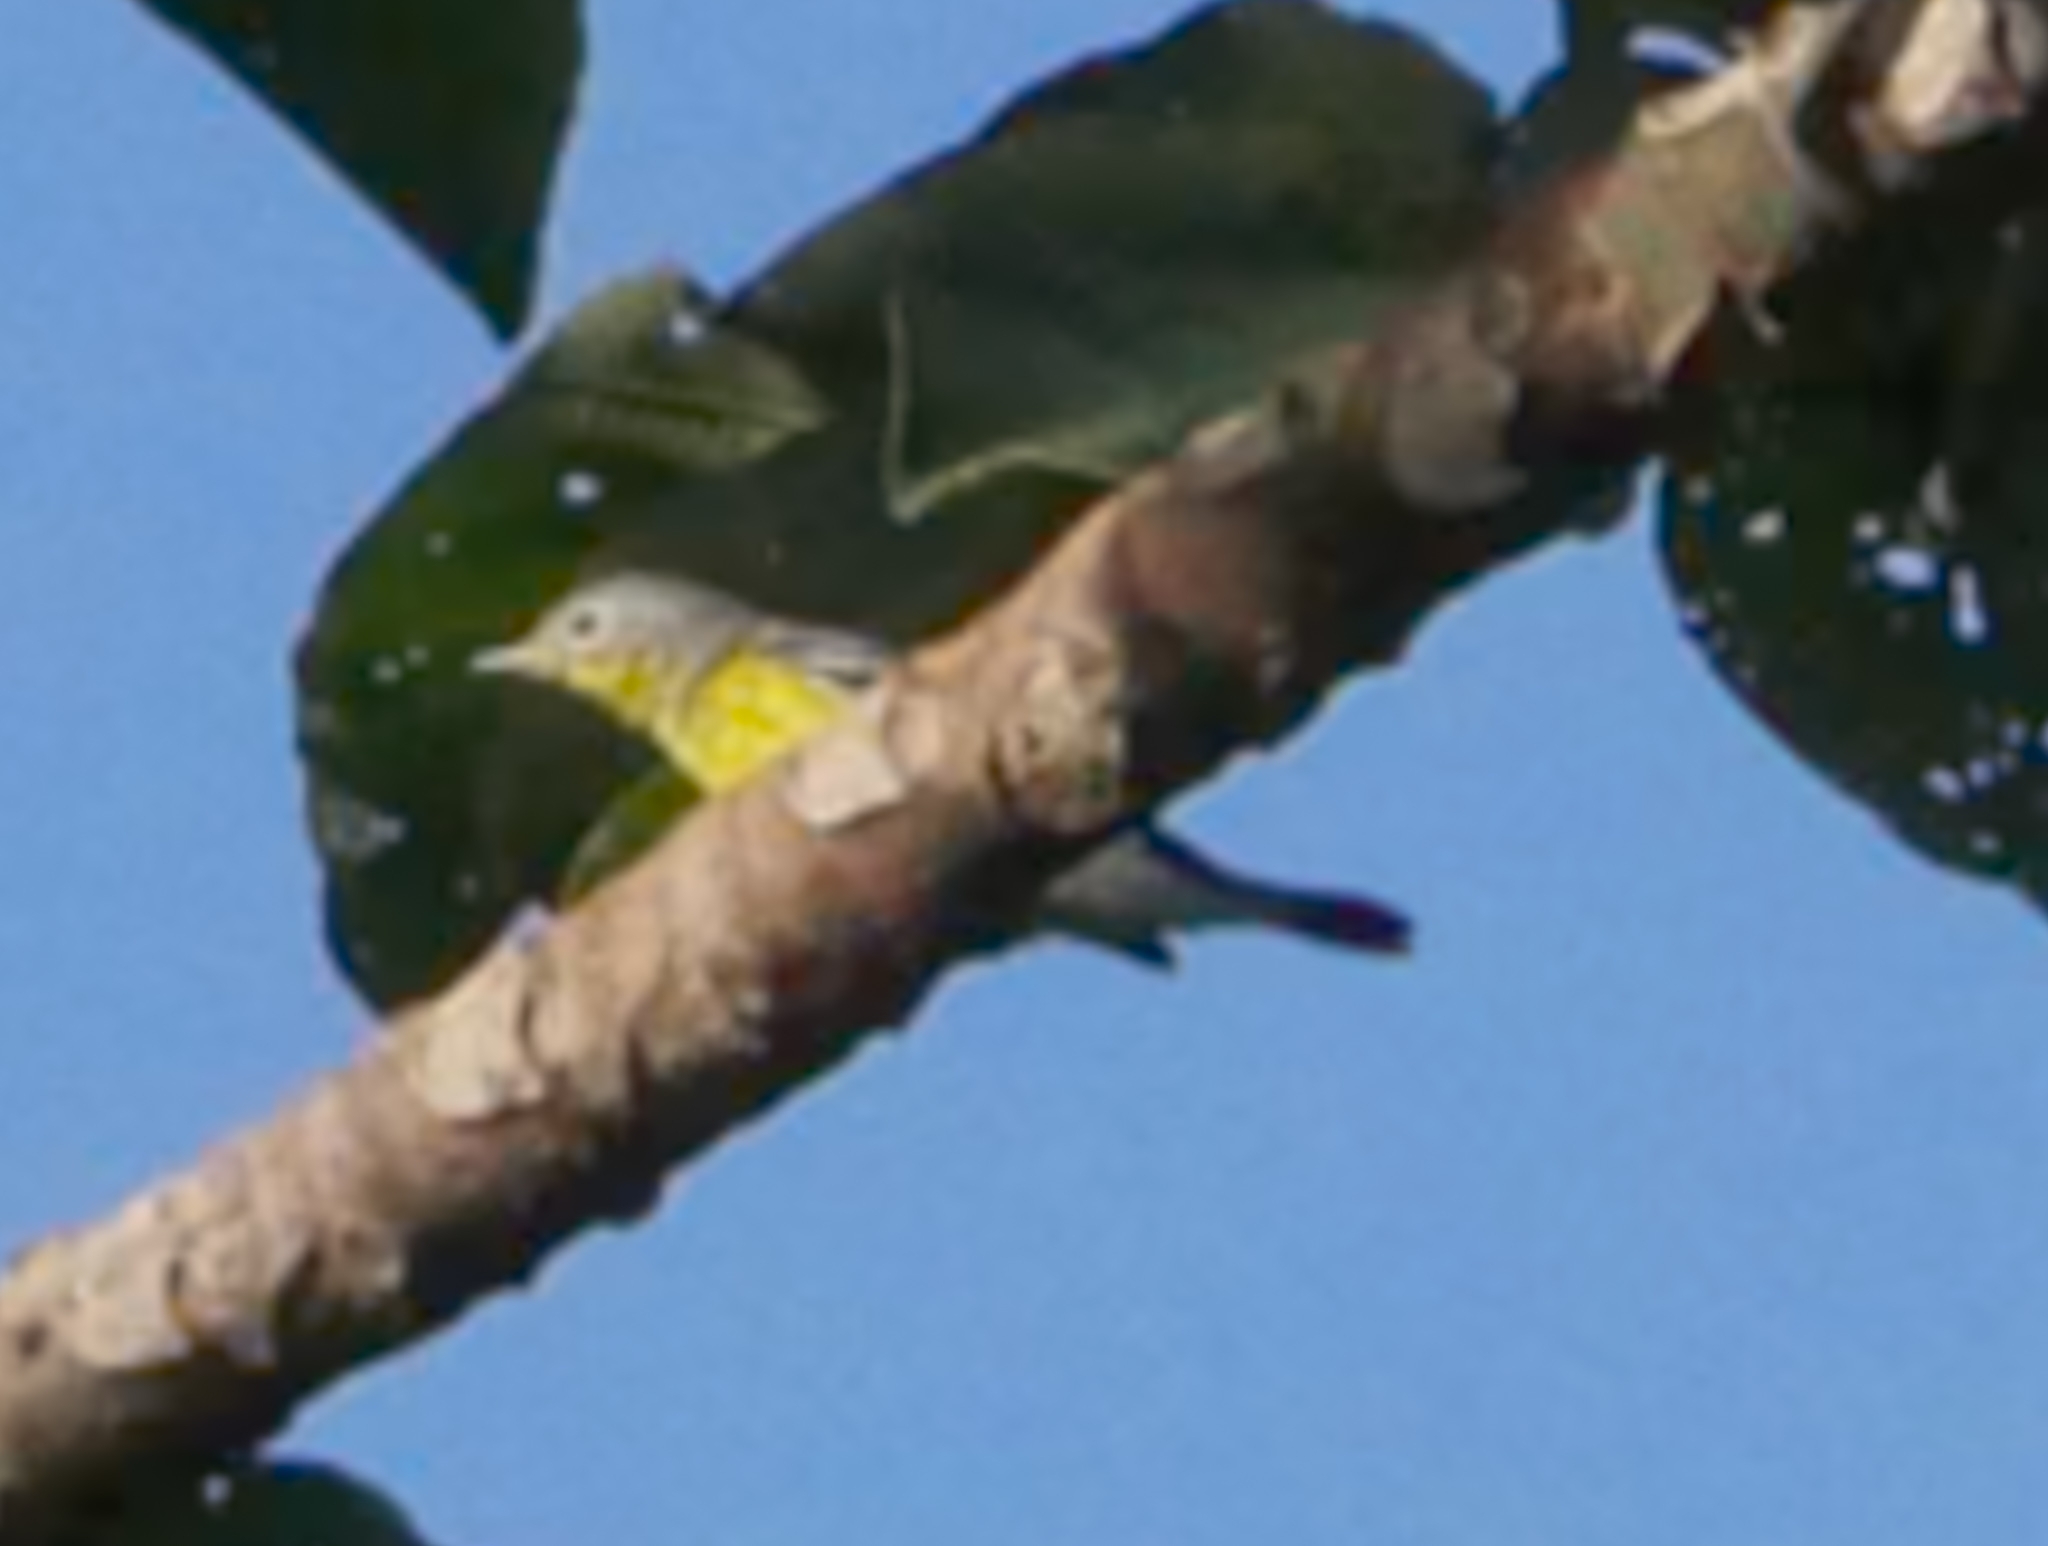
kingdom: Animalia
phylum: Chordata
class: Aves
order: Passeriformes
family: Parulidae
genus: Setophaga
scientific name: Setophaga magnolia
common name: Magnolia warbler
